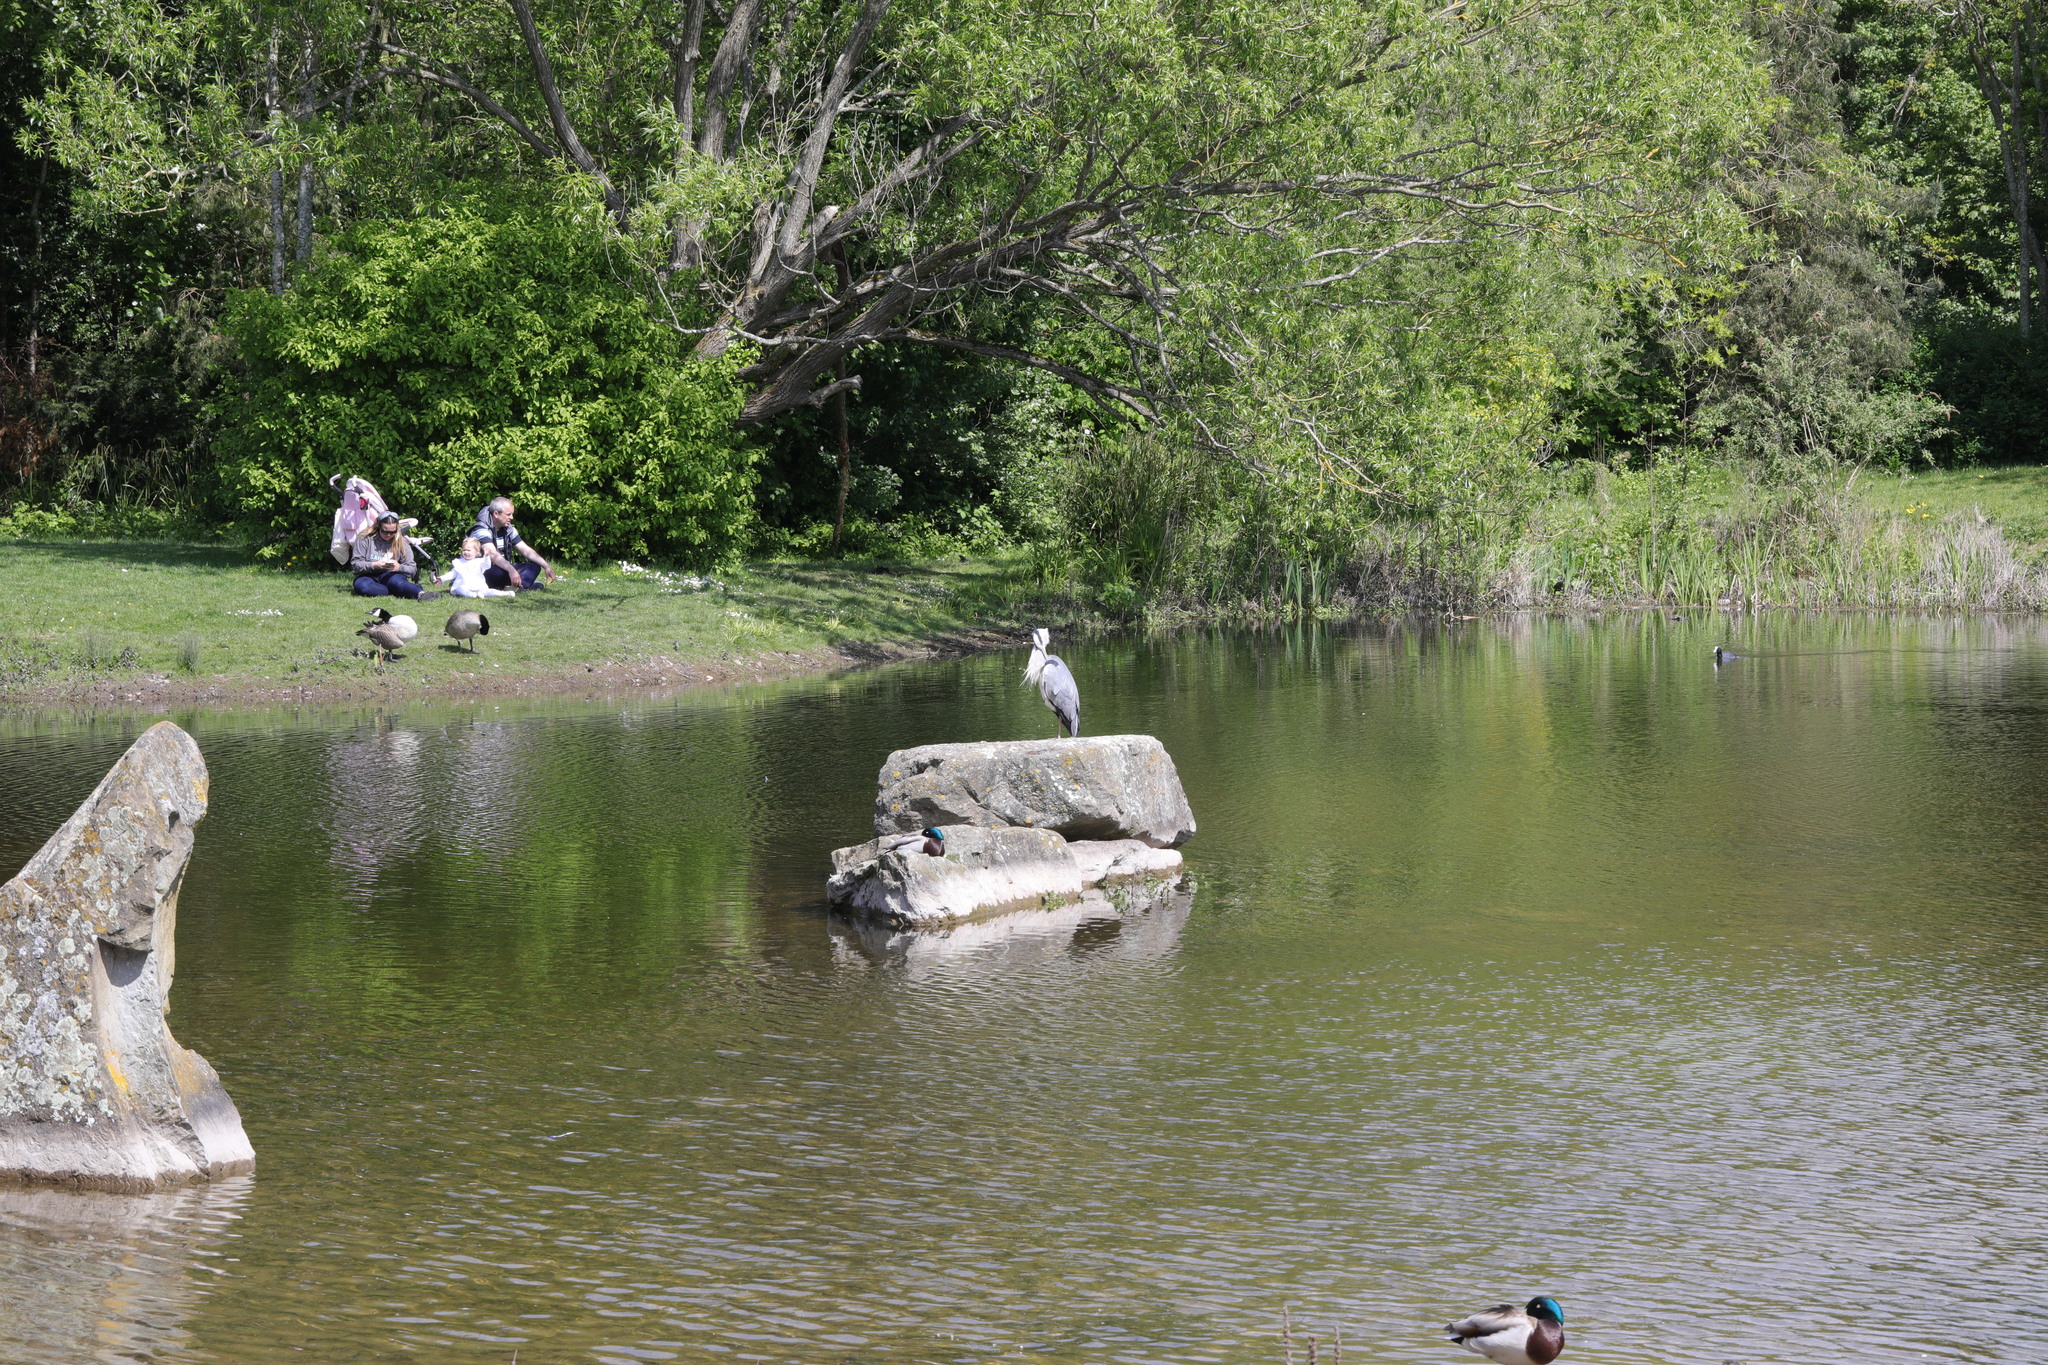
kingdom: Animalia
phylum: Chordata
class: Aves
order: Pelecaniformes
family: Ardeidae
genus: Ardea
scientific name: Ardea cinerea
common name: Grey heron
